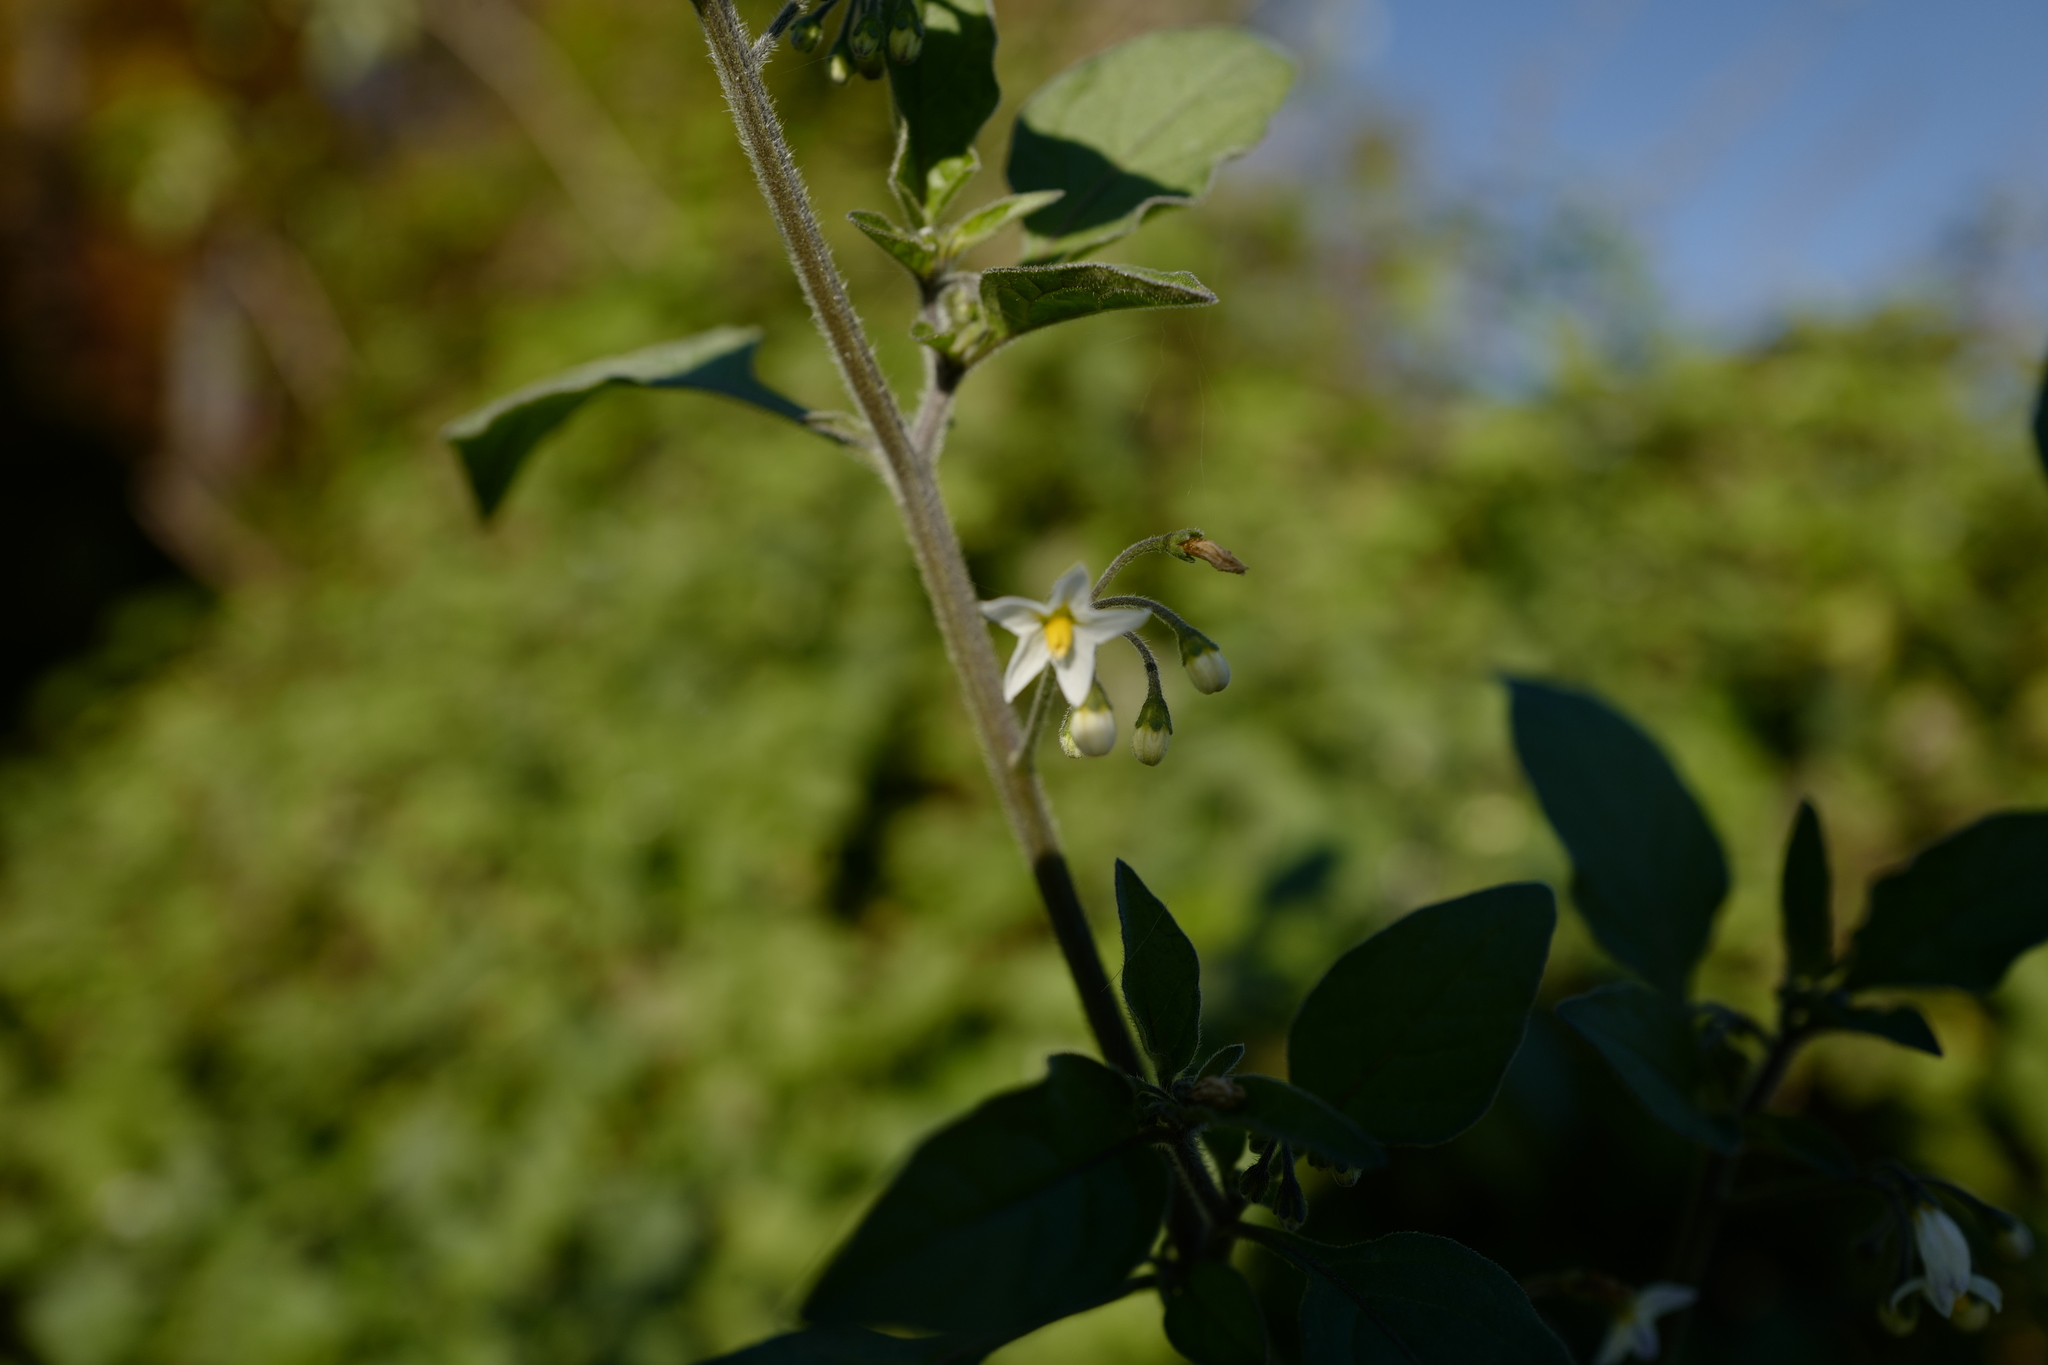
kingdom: Plantae
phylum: Tracheophyta
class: Magnoliopsida
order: Solanales
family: Solanaceae
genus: Solanum
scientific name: Solanum nigrum
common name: Black nightshade
